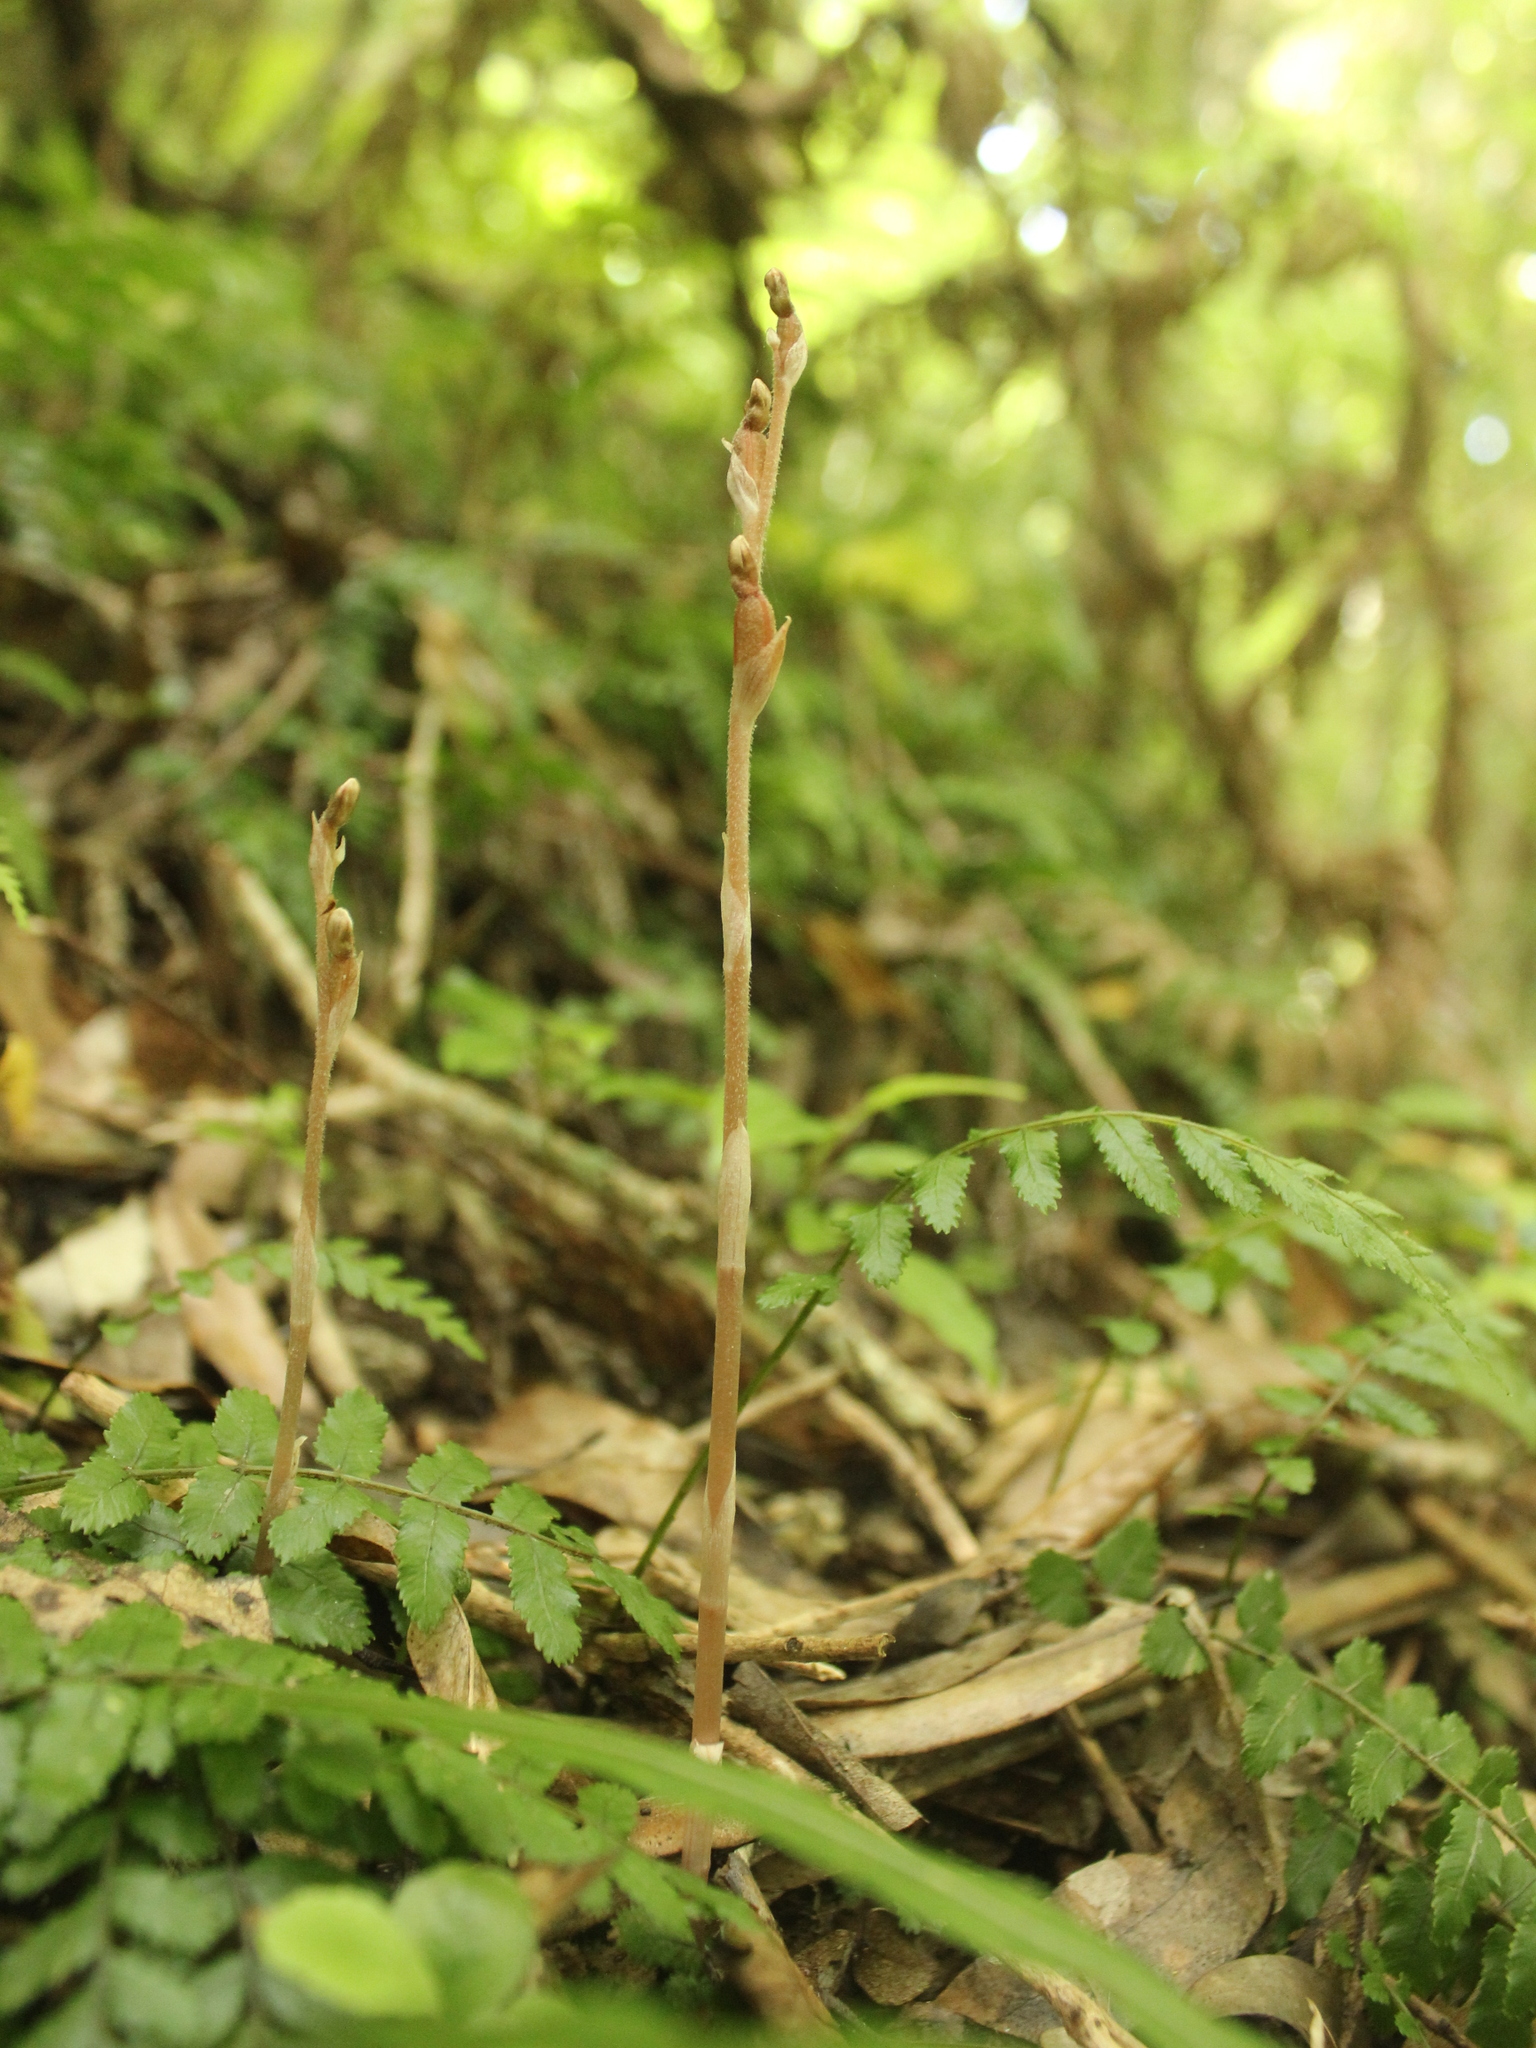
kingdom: Plantae
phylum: Tracheophyta
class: Liliopsida
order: Asparagales
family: Orchidaceae
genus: Danhatchia
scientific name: Danhatchia australis
